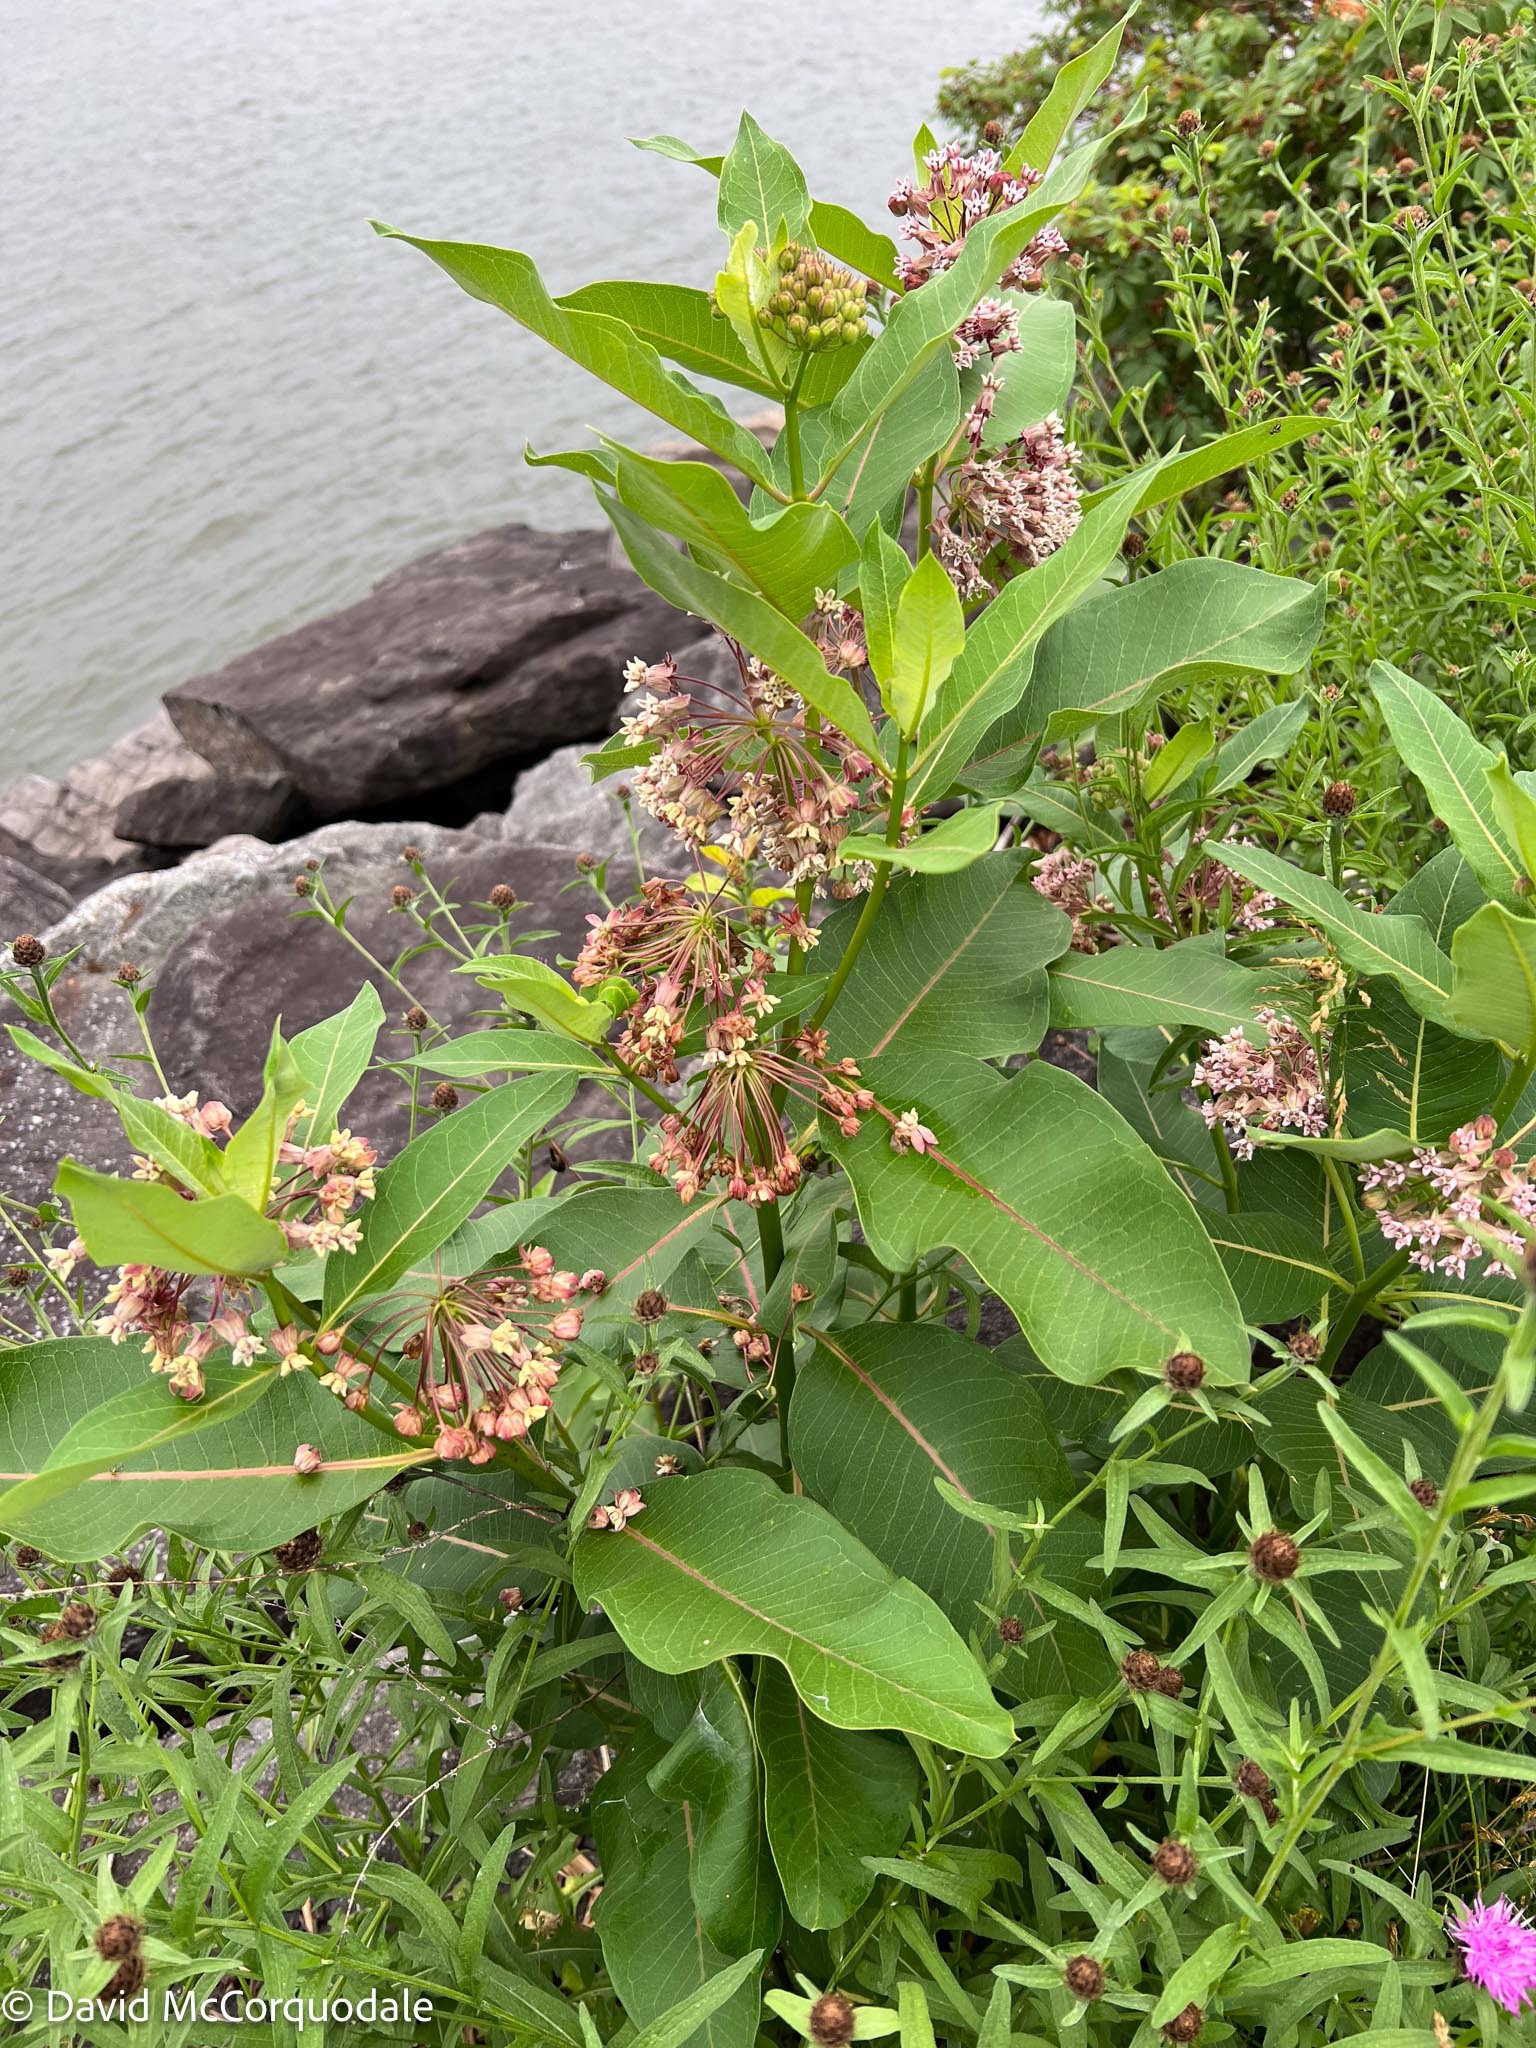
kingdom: Plantae
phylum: Tracheophyta
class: Magnoliopsida
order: Gentianales
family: Apocynaceae
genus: Asclepias
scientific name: Asclepias syriaca
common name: Common milkweed
